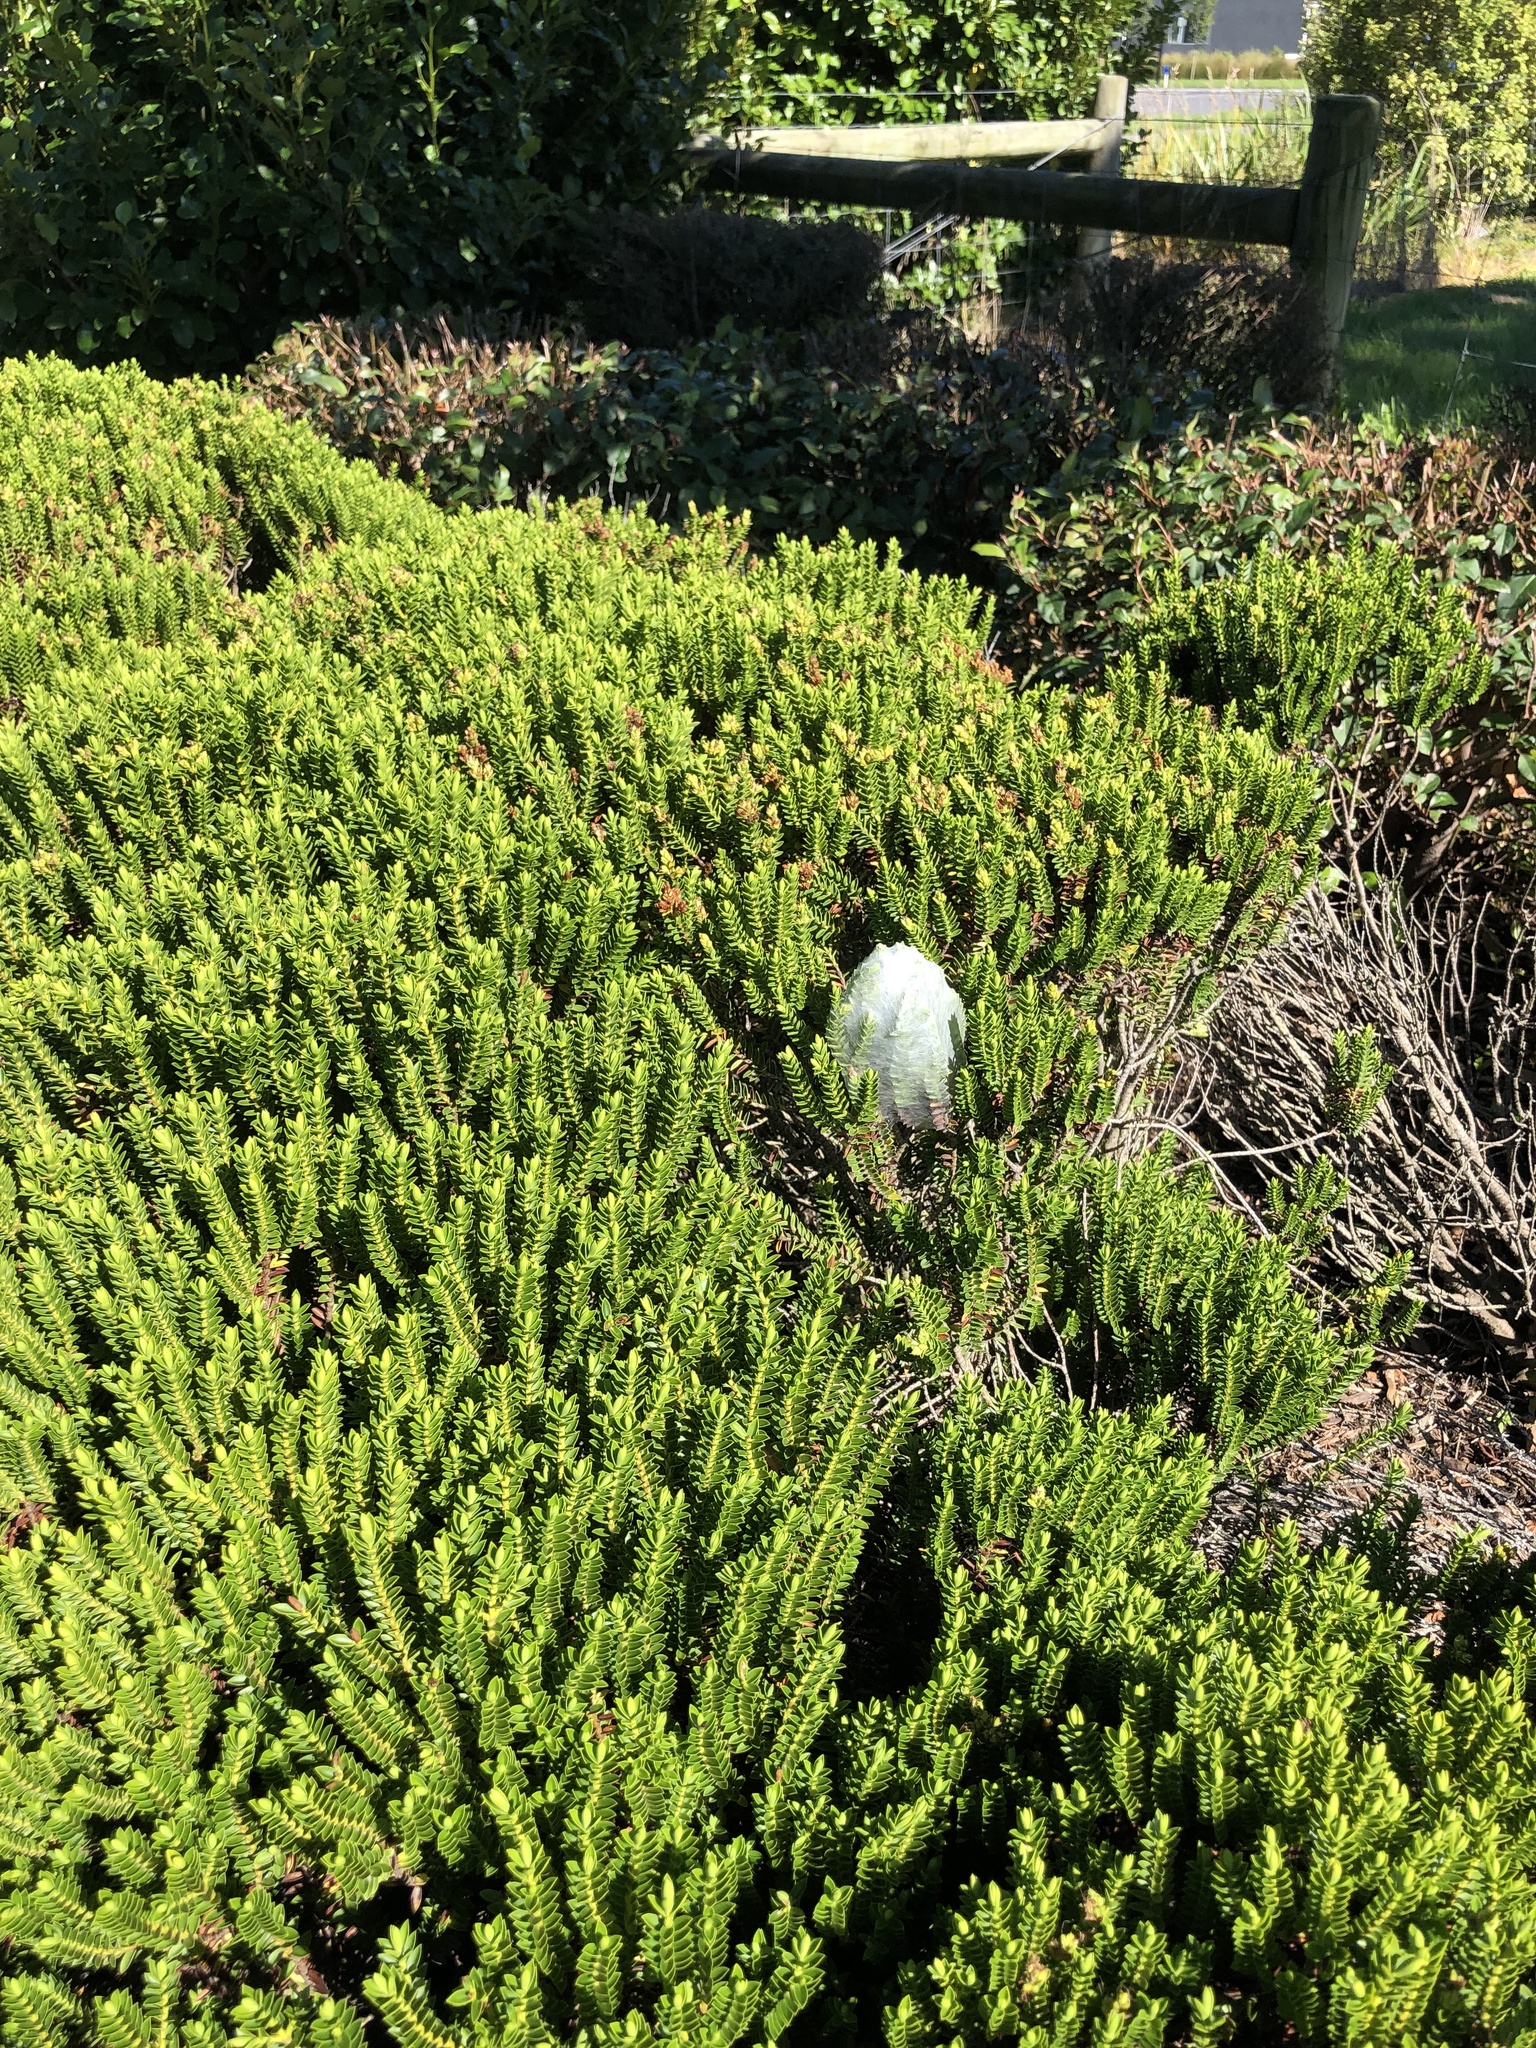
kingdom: Animalia
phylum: Arthropoda
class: Arachnida
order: Araneae
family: Pisauridae
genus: Dolomedes
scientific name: Dolomedes minor
